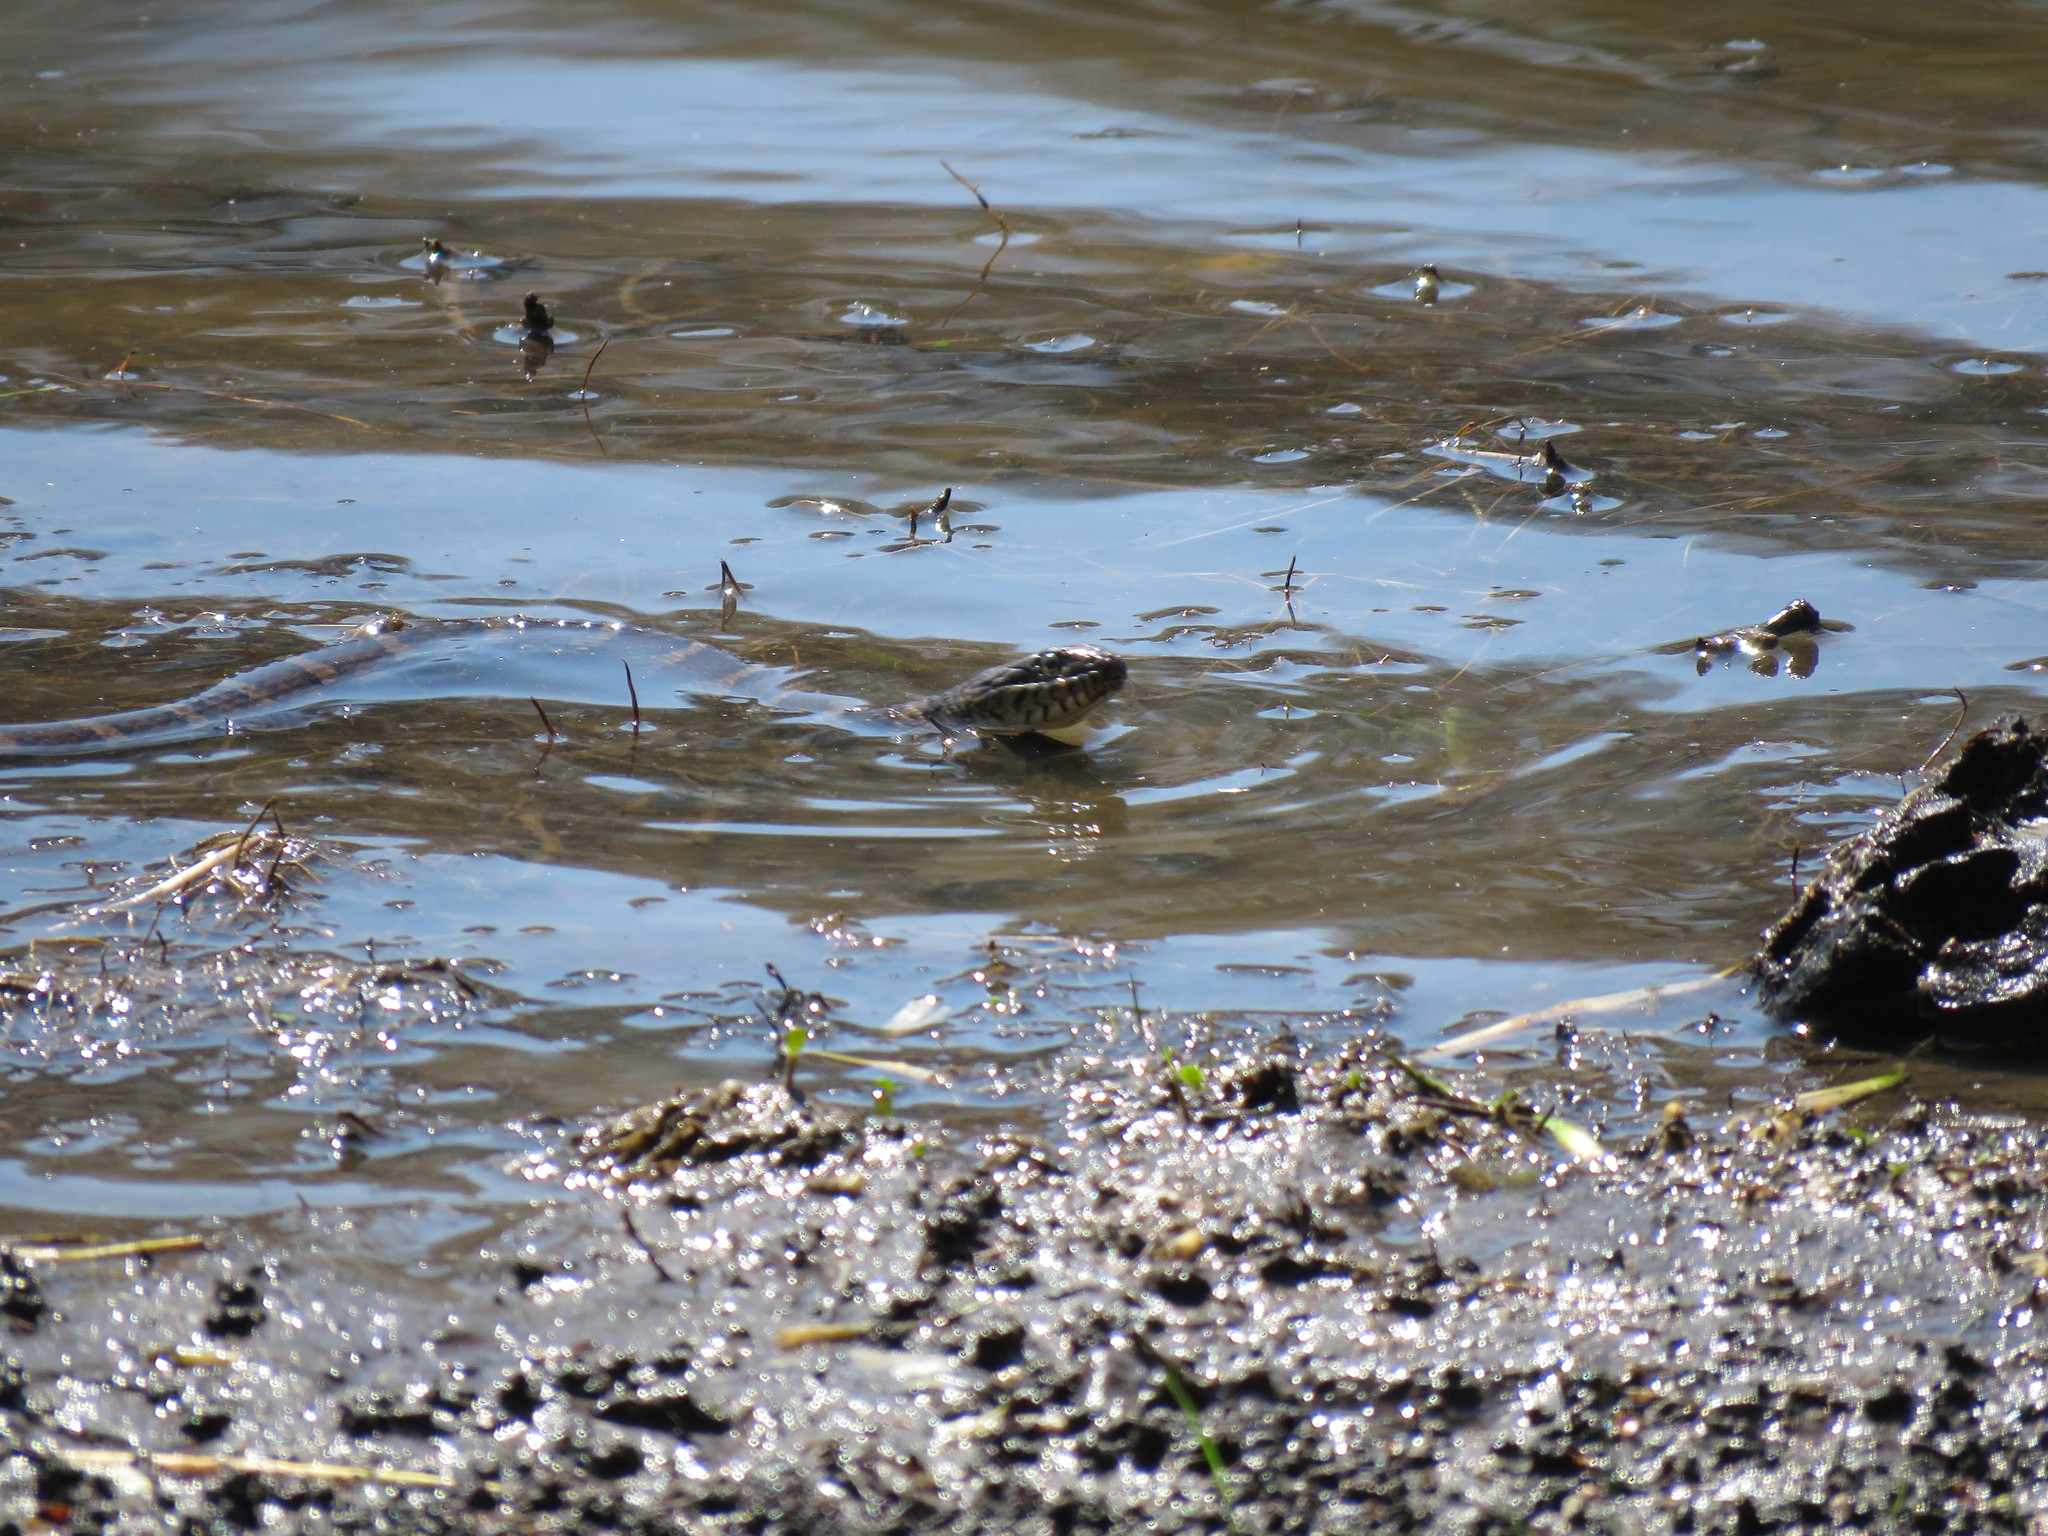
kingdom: Animalia
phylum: Chordata
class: Squamata
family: Colubridae
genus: Nerodia
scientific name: Nerodia sipedon
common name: Northern water snake
